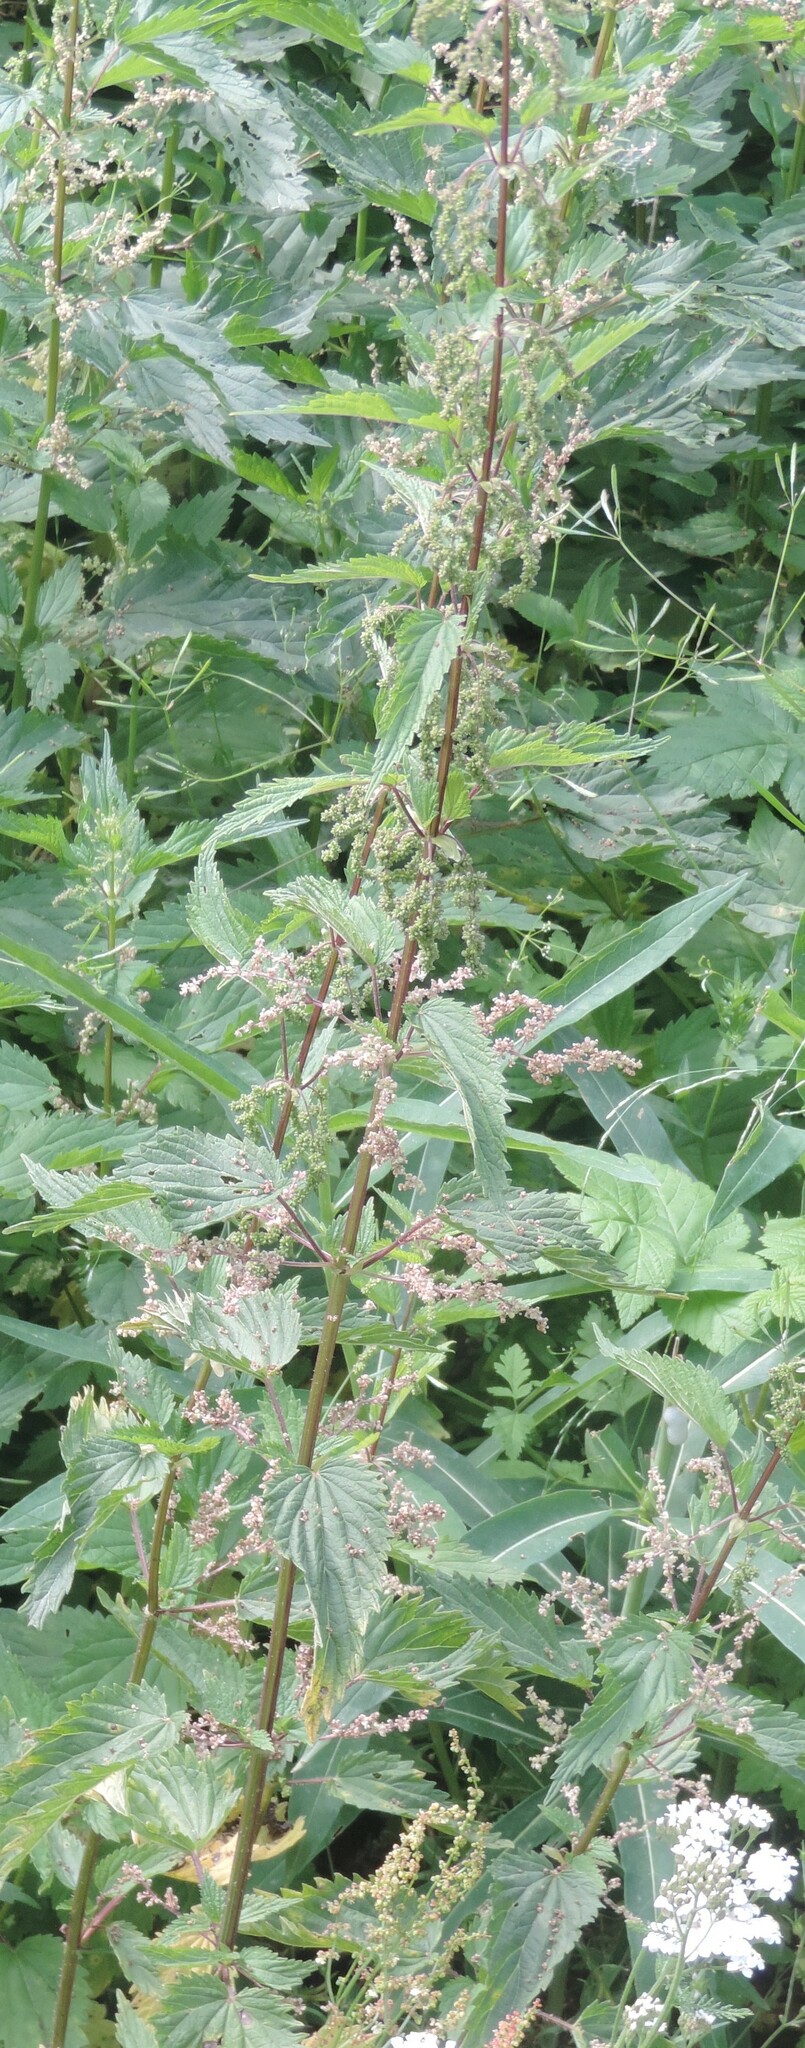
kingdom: Plantae
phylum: Tracheophyta
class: Magnoliopsida
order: Rosales
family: Urticaceae
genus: Urtica
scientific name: Urtica gracilis
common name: Slender stinging nettle
